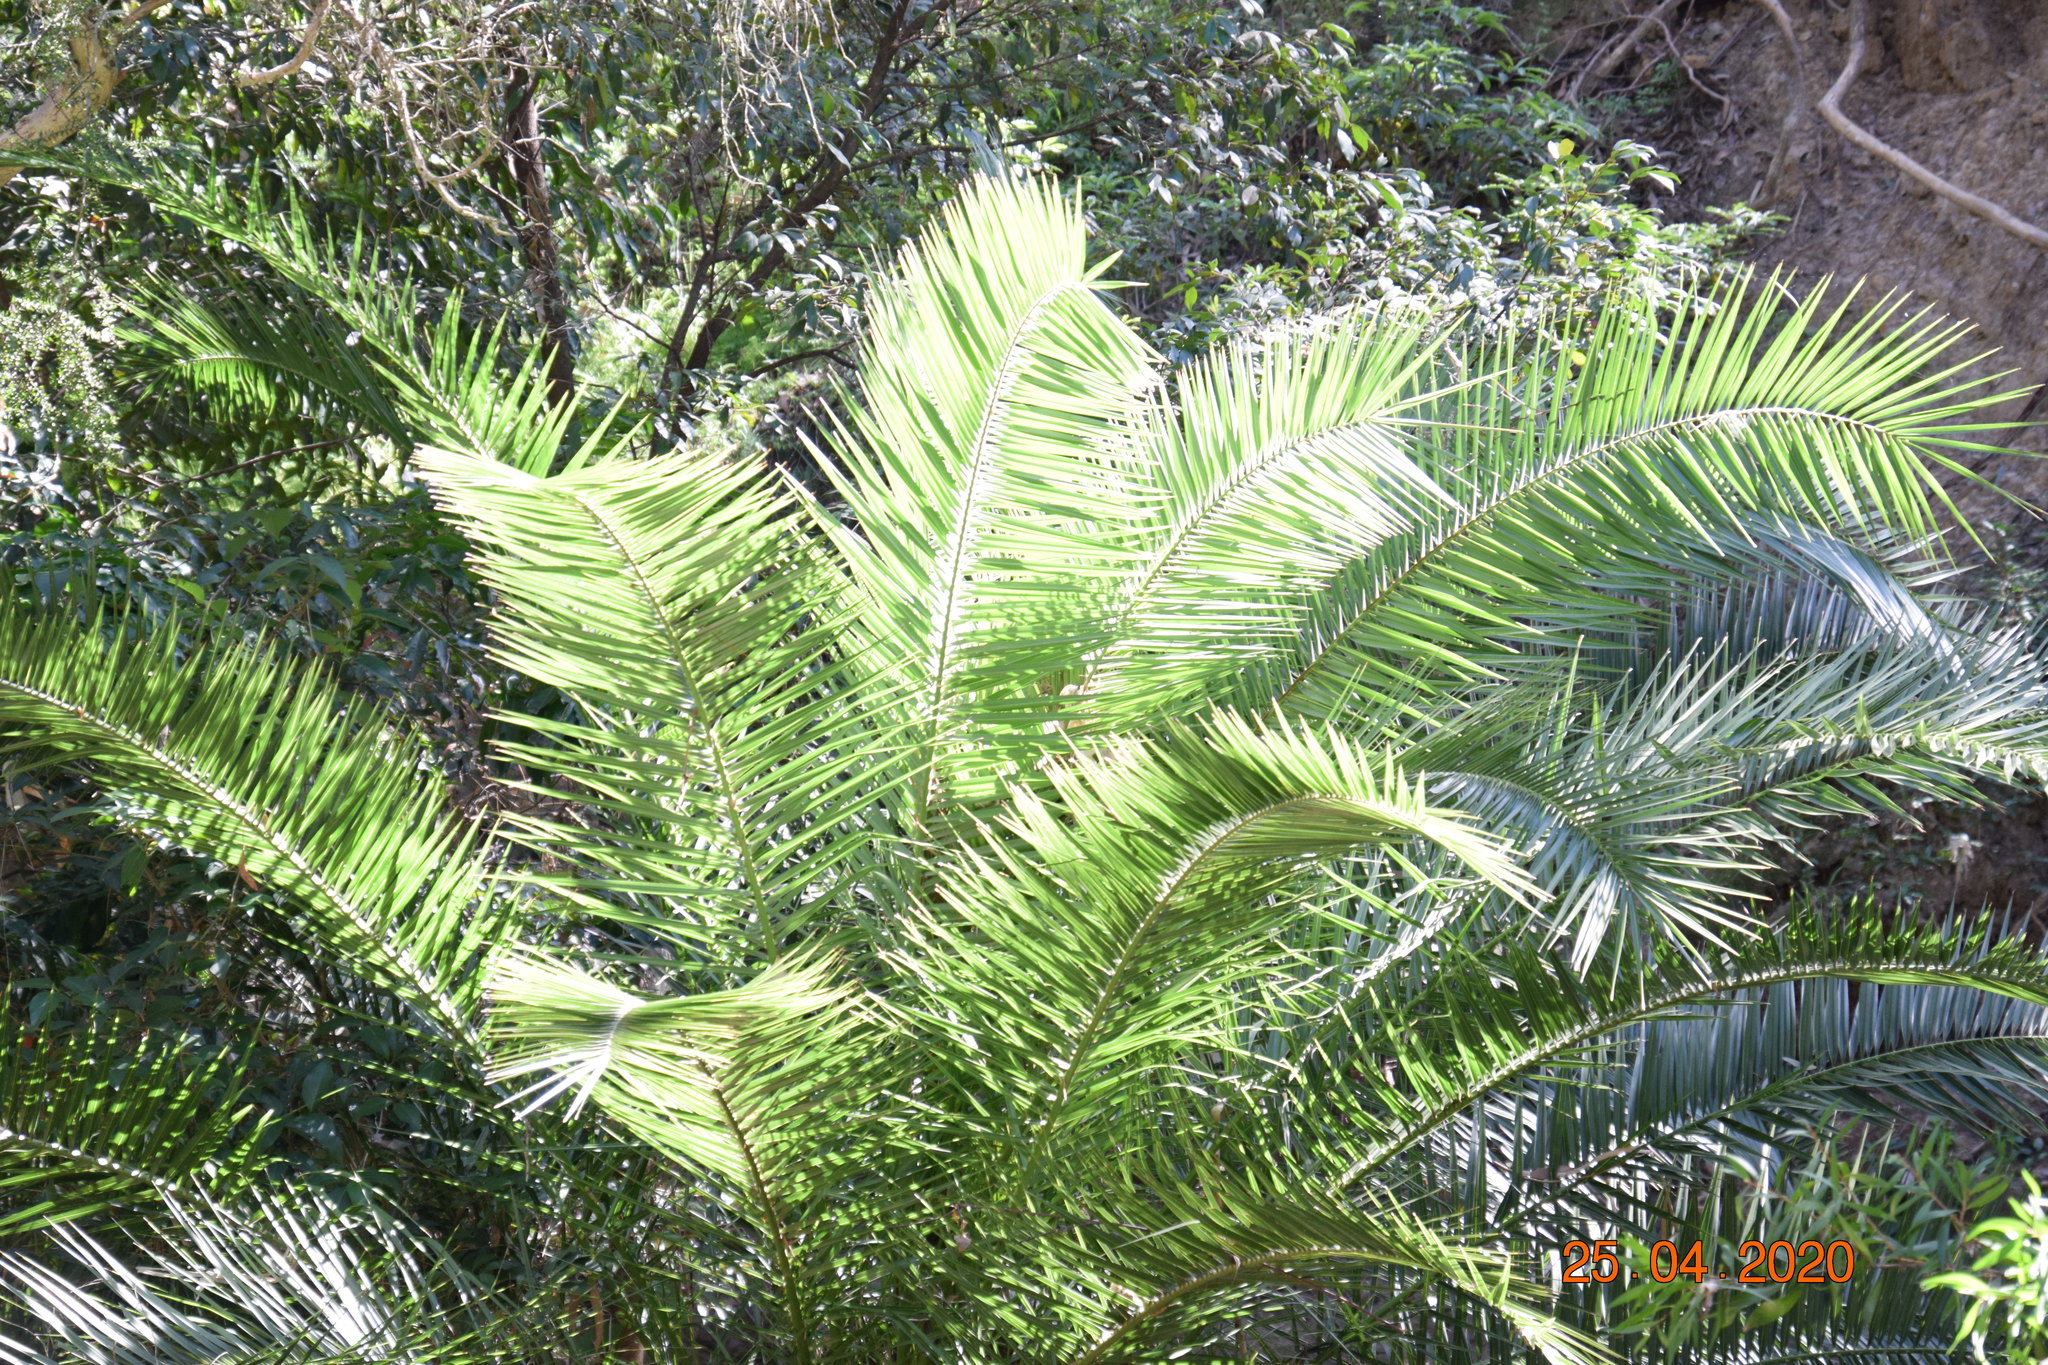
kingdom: Plantae
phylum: Tracheophyta
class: Liliopsida
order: Arecales
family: Arecaceae
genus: Phoenix
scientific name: Phoenix canariensis
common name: Canary island date palm
